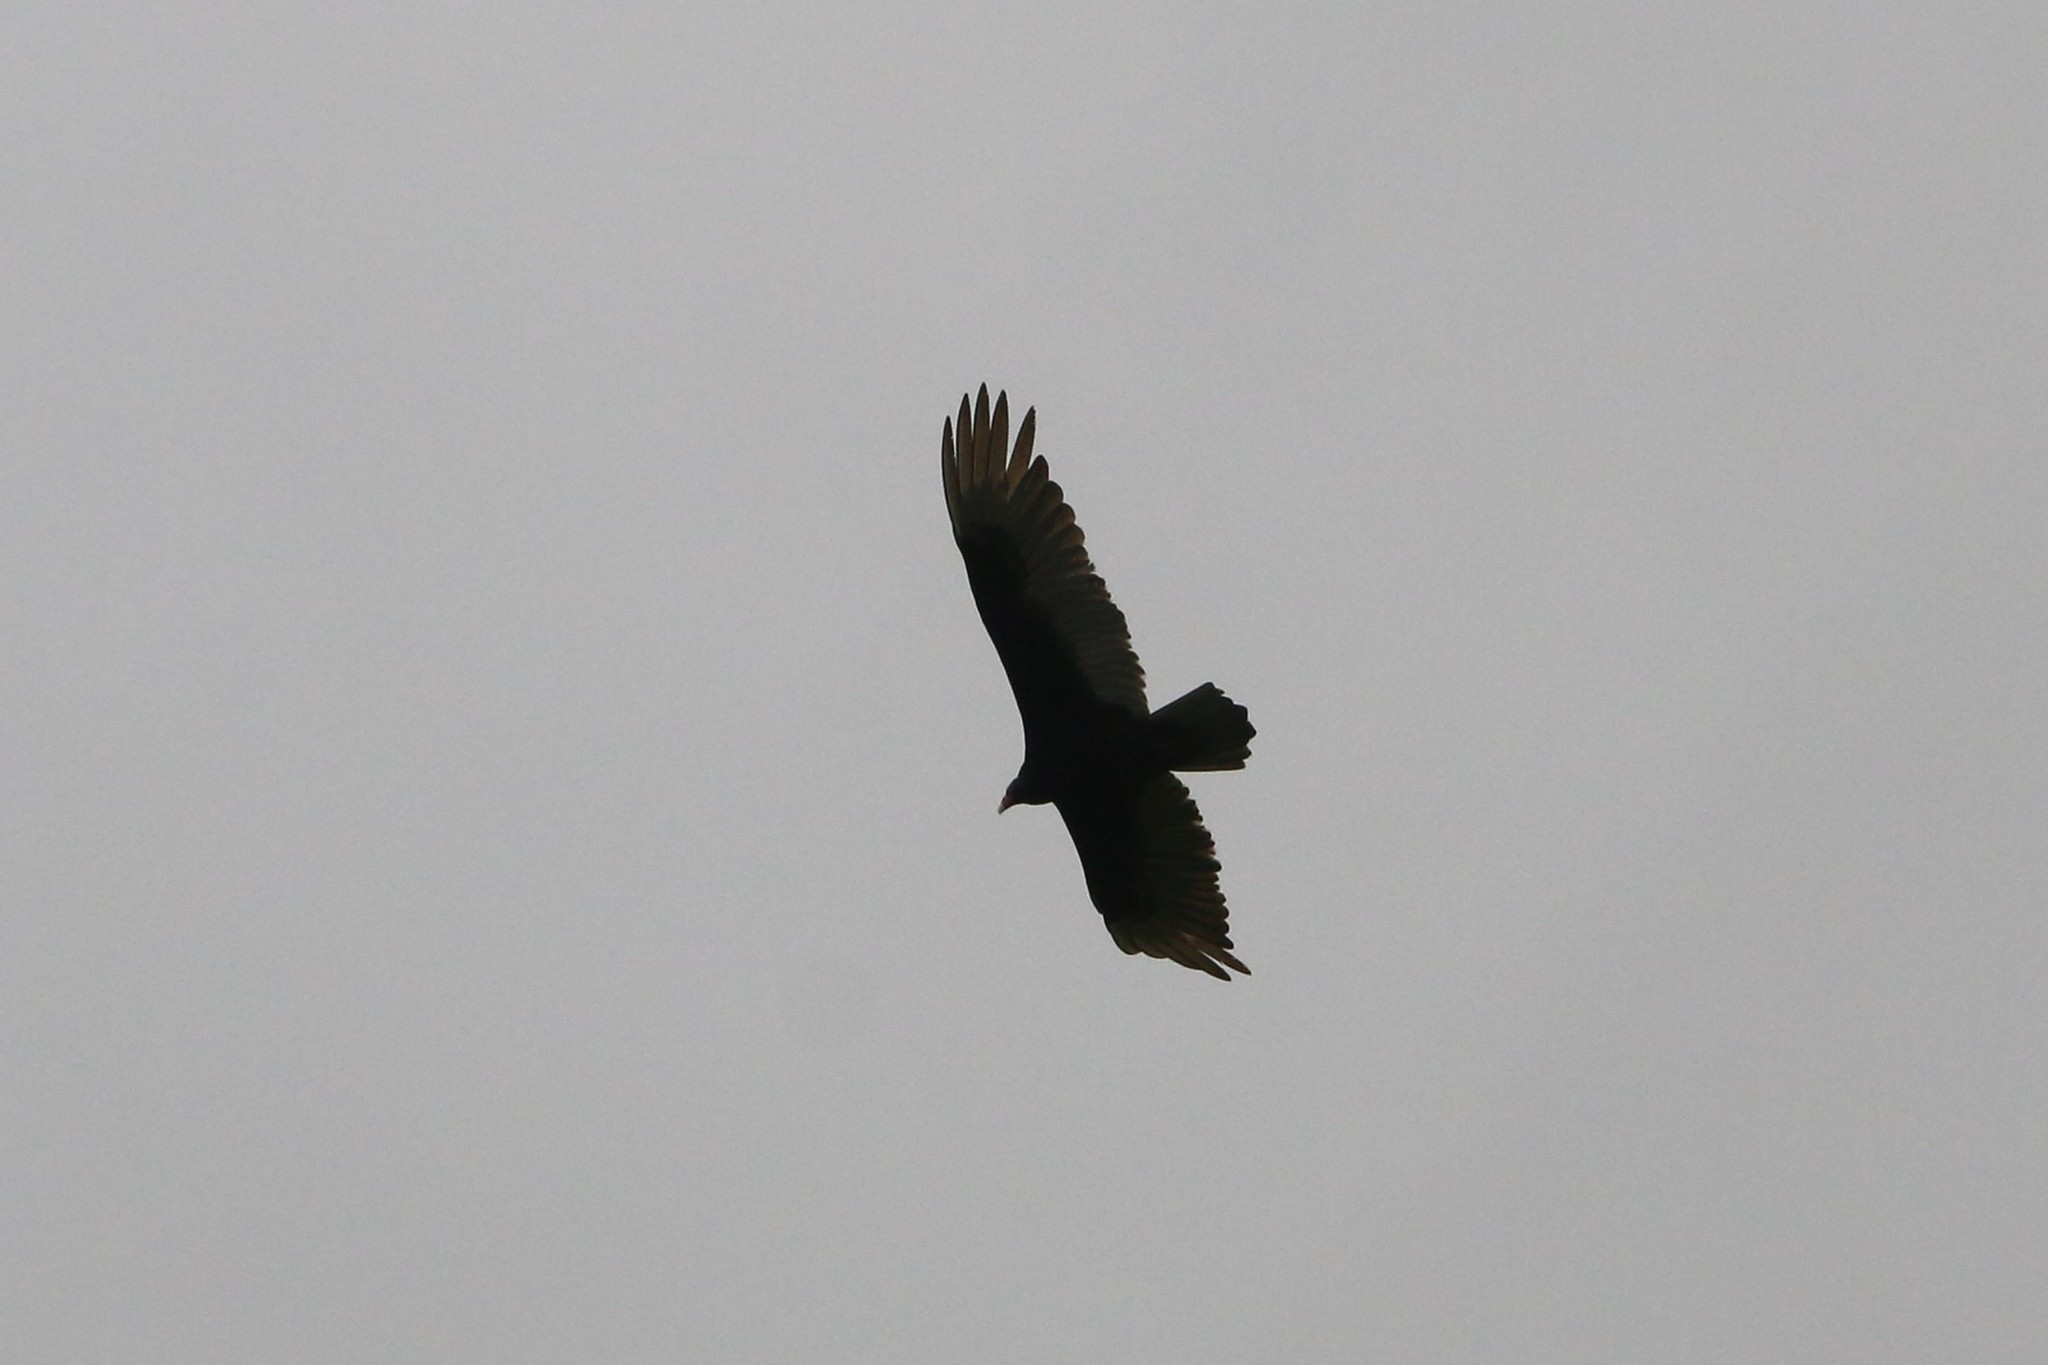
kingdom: Animalia
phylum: Chordata
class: Aves
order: Accipitriformes
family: Cathartidae
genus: Cathartes
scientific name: Cathartes aura
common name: Turkey vulture
